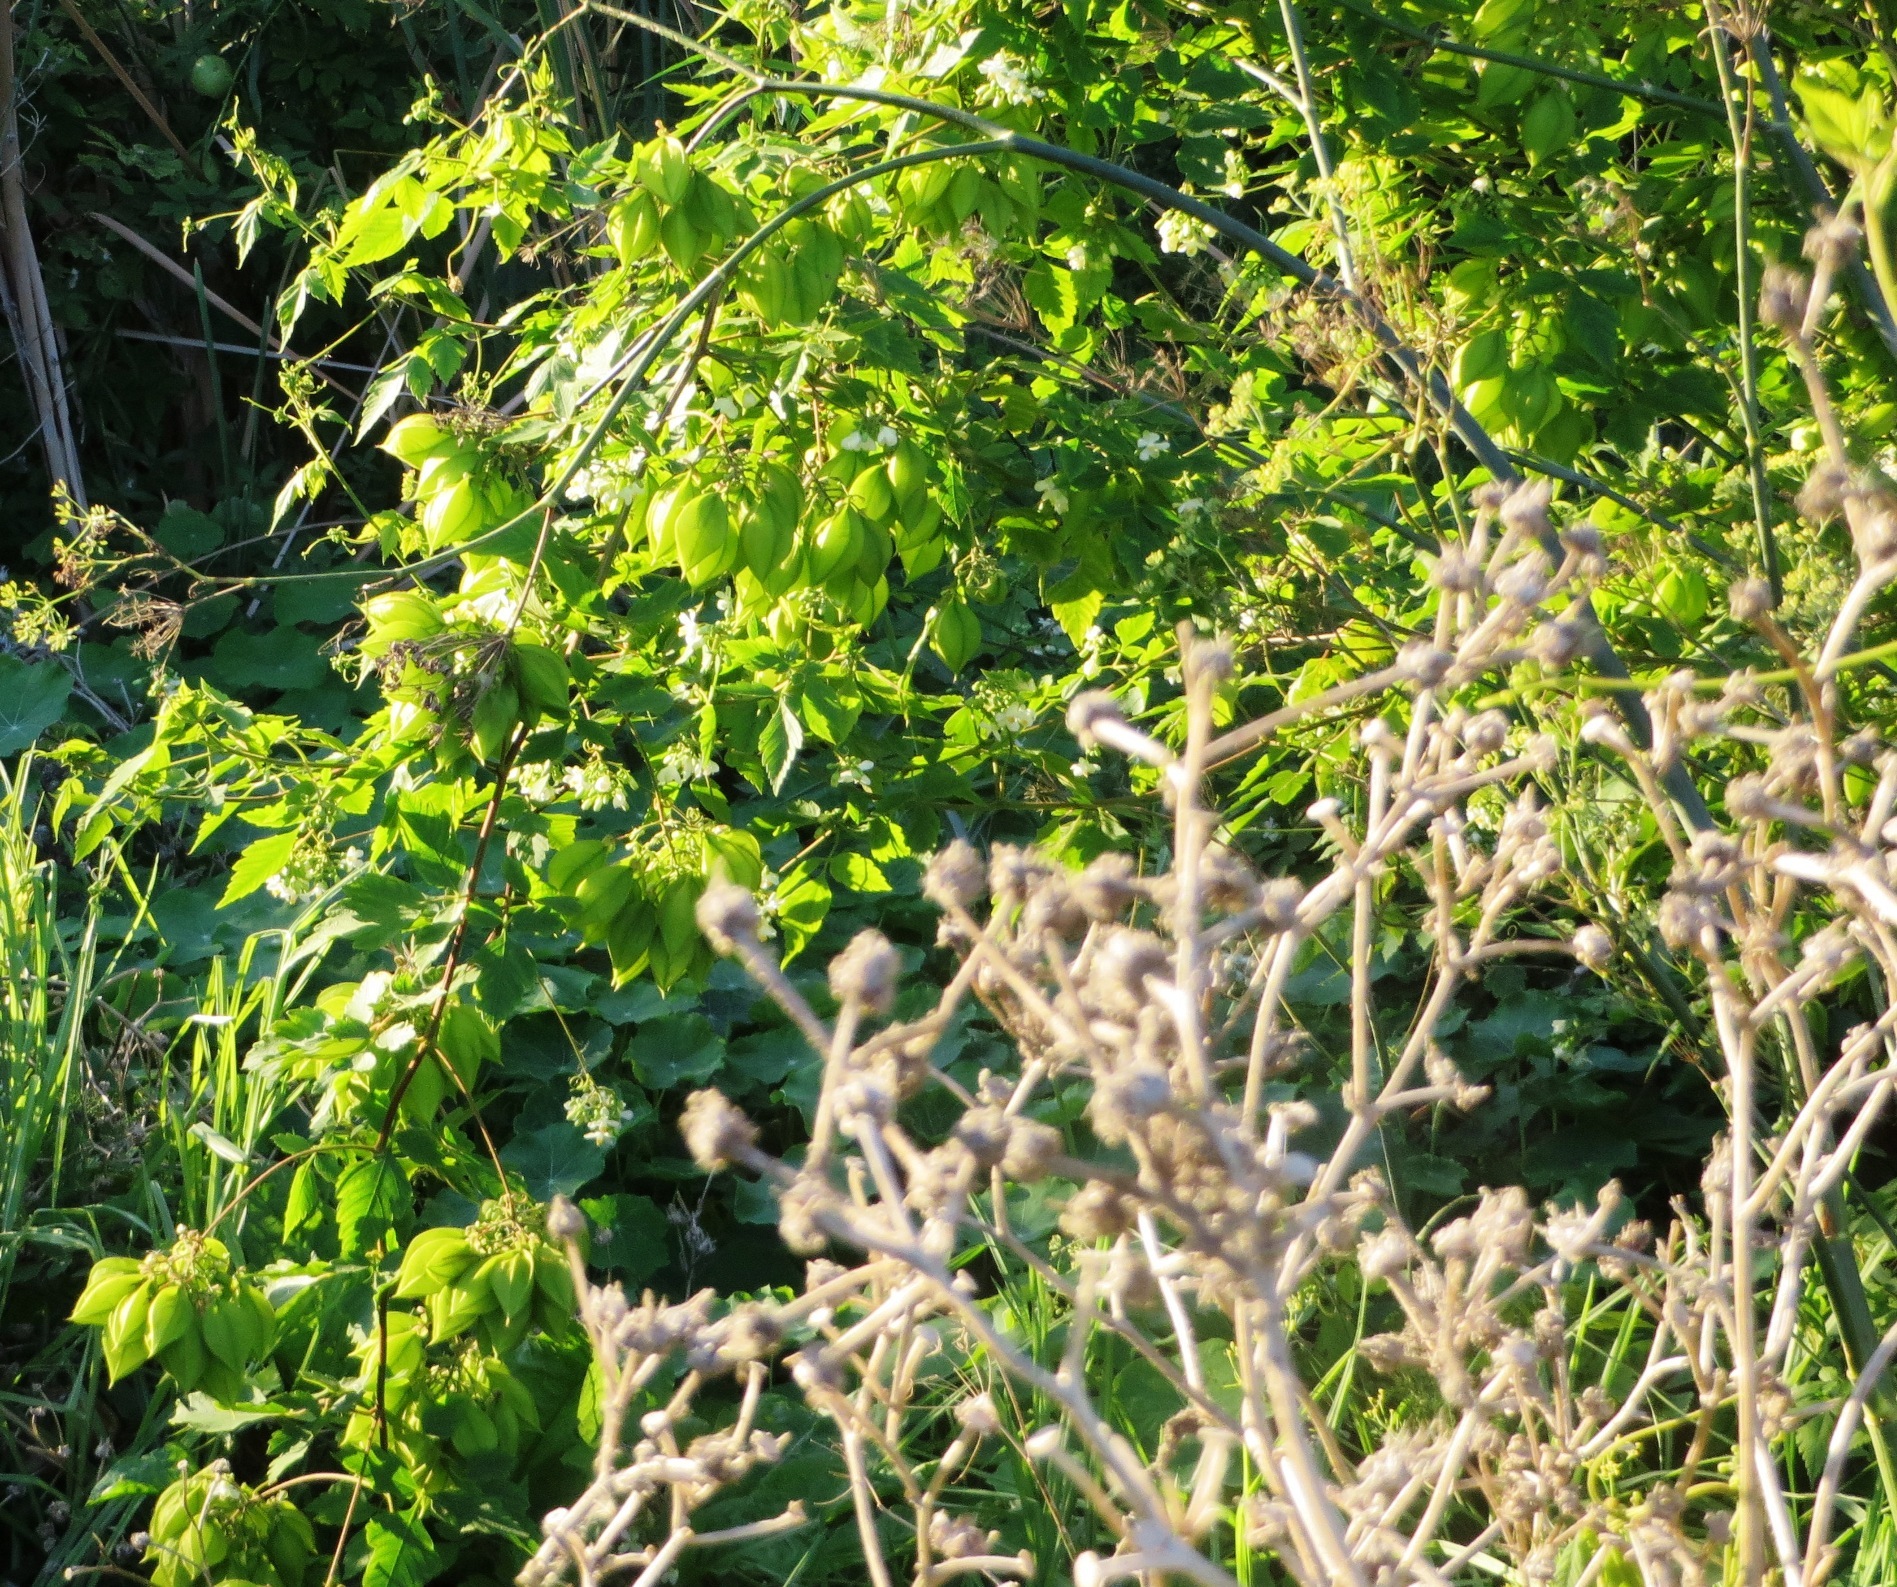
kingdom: Plantae
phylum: Tracheophyta
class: Magnoliopsida
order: Sapindales
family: Sapindaceae
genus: Cardiospermum
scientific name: Cardiospermum grandiflorum
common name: Balloon vine
